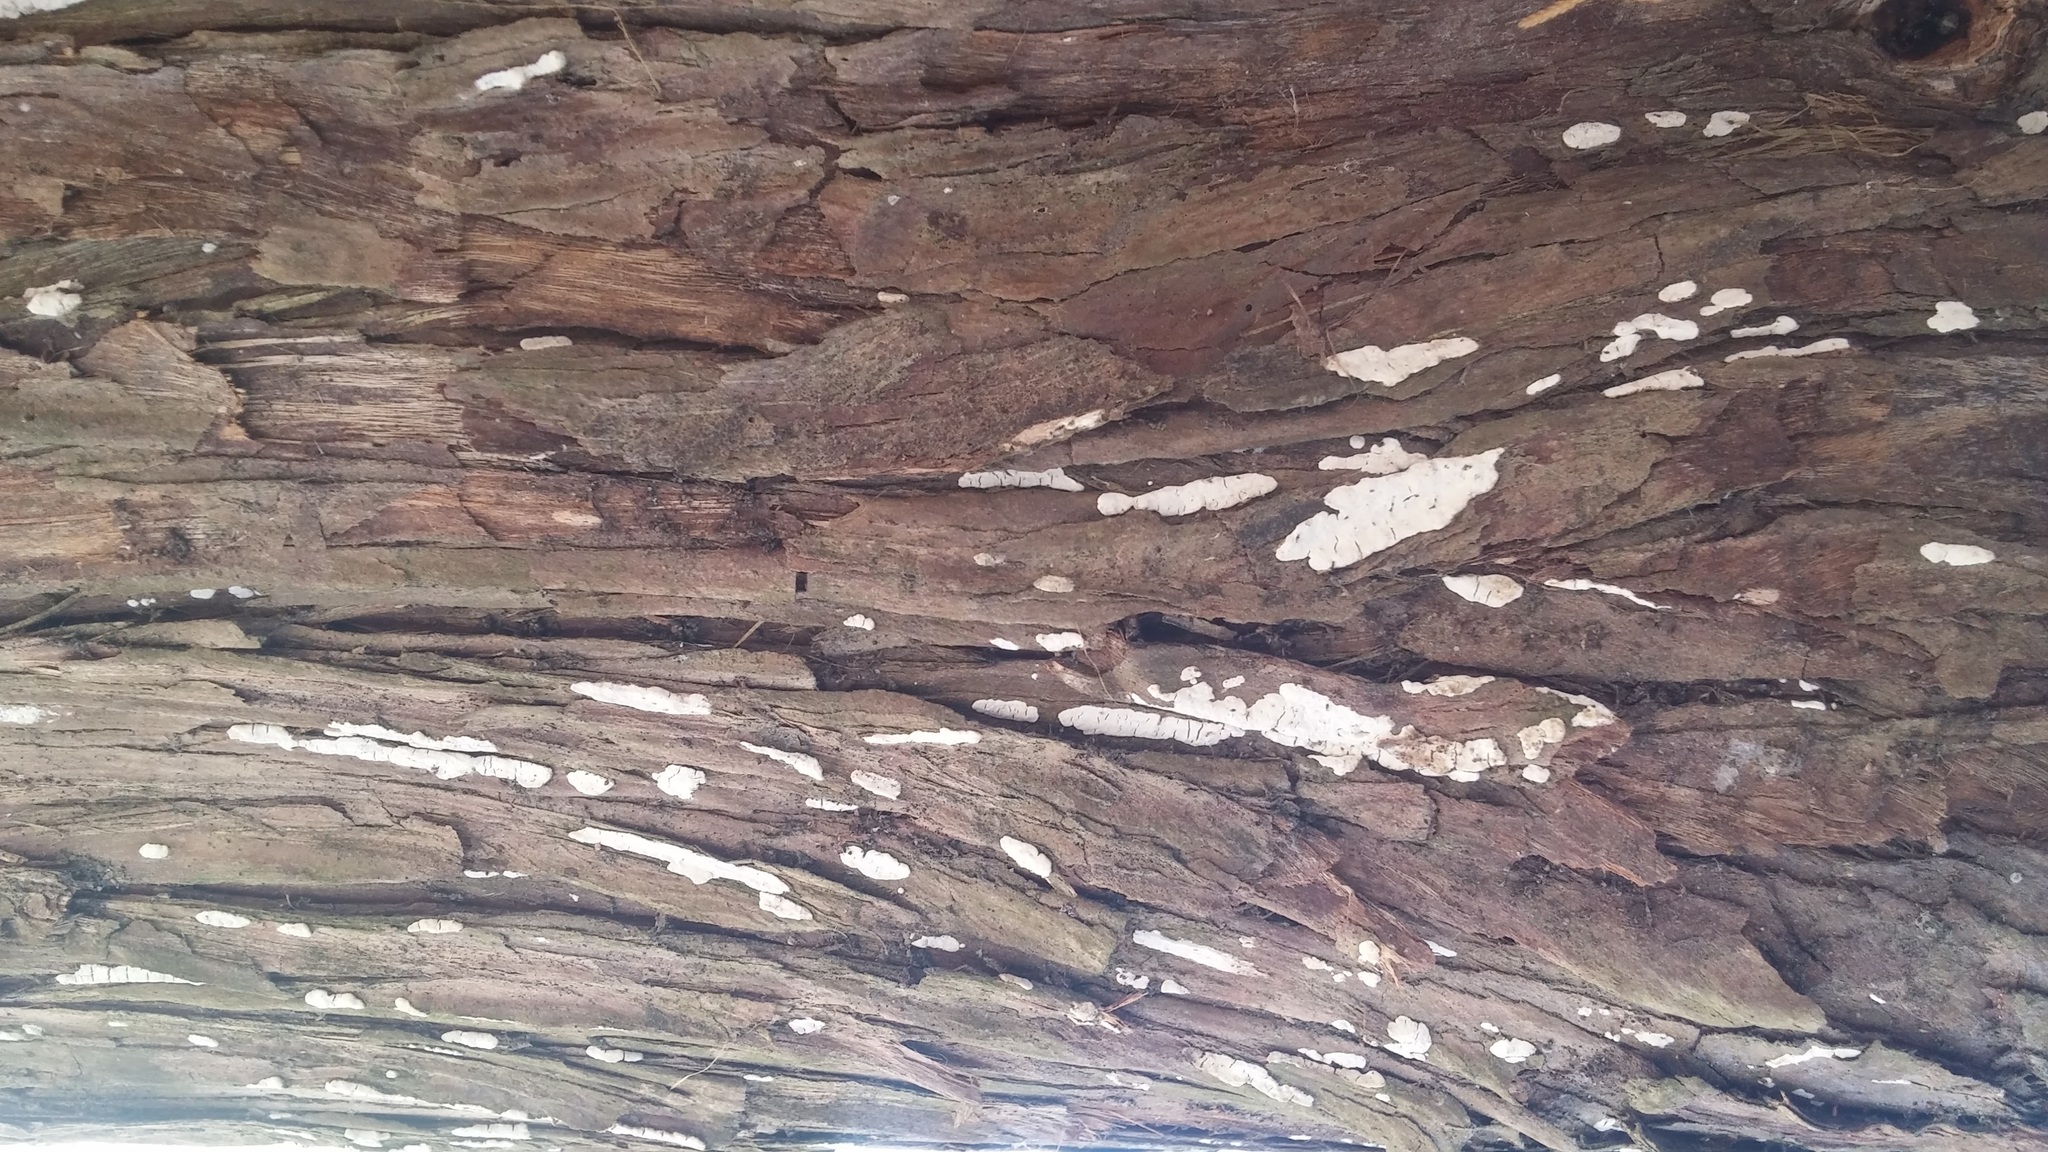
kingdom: Fungi
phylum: Basidiomycota
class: Agaricomycetes
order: Agaricales
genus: Dendrothele
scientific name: Dendrothele nivosa
